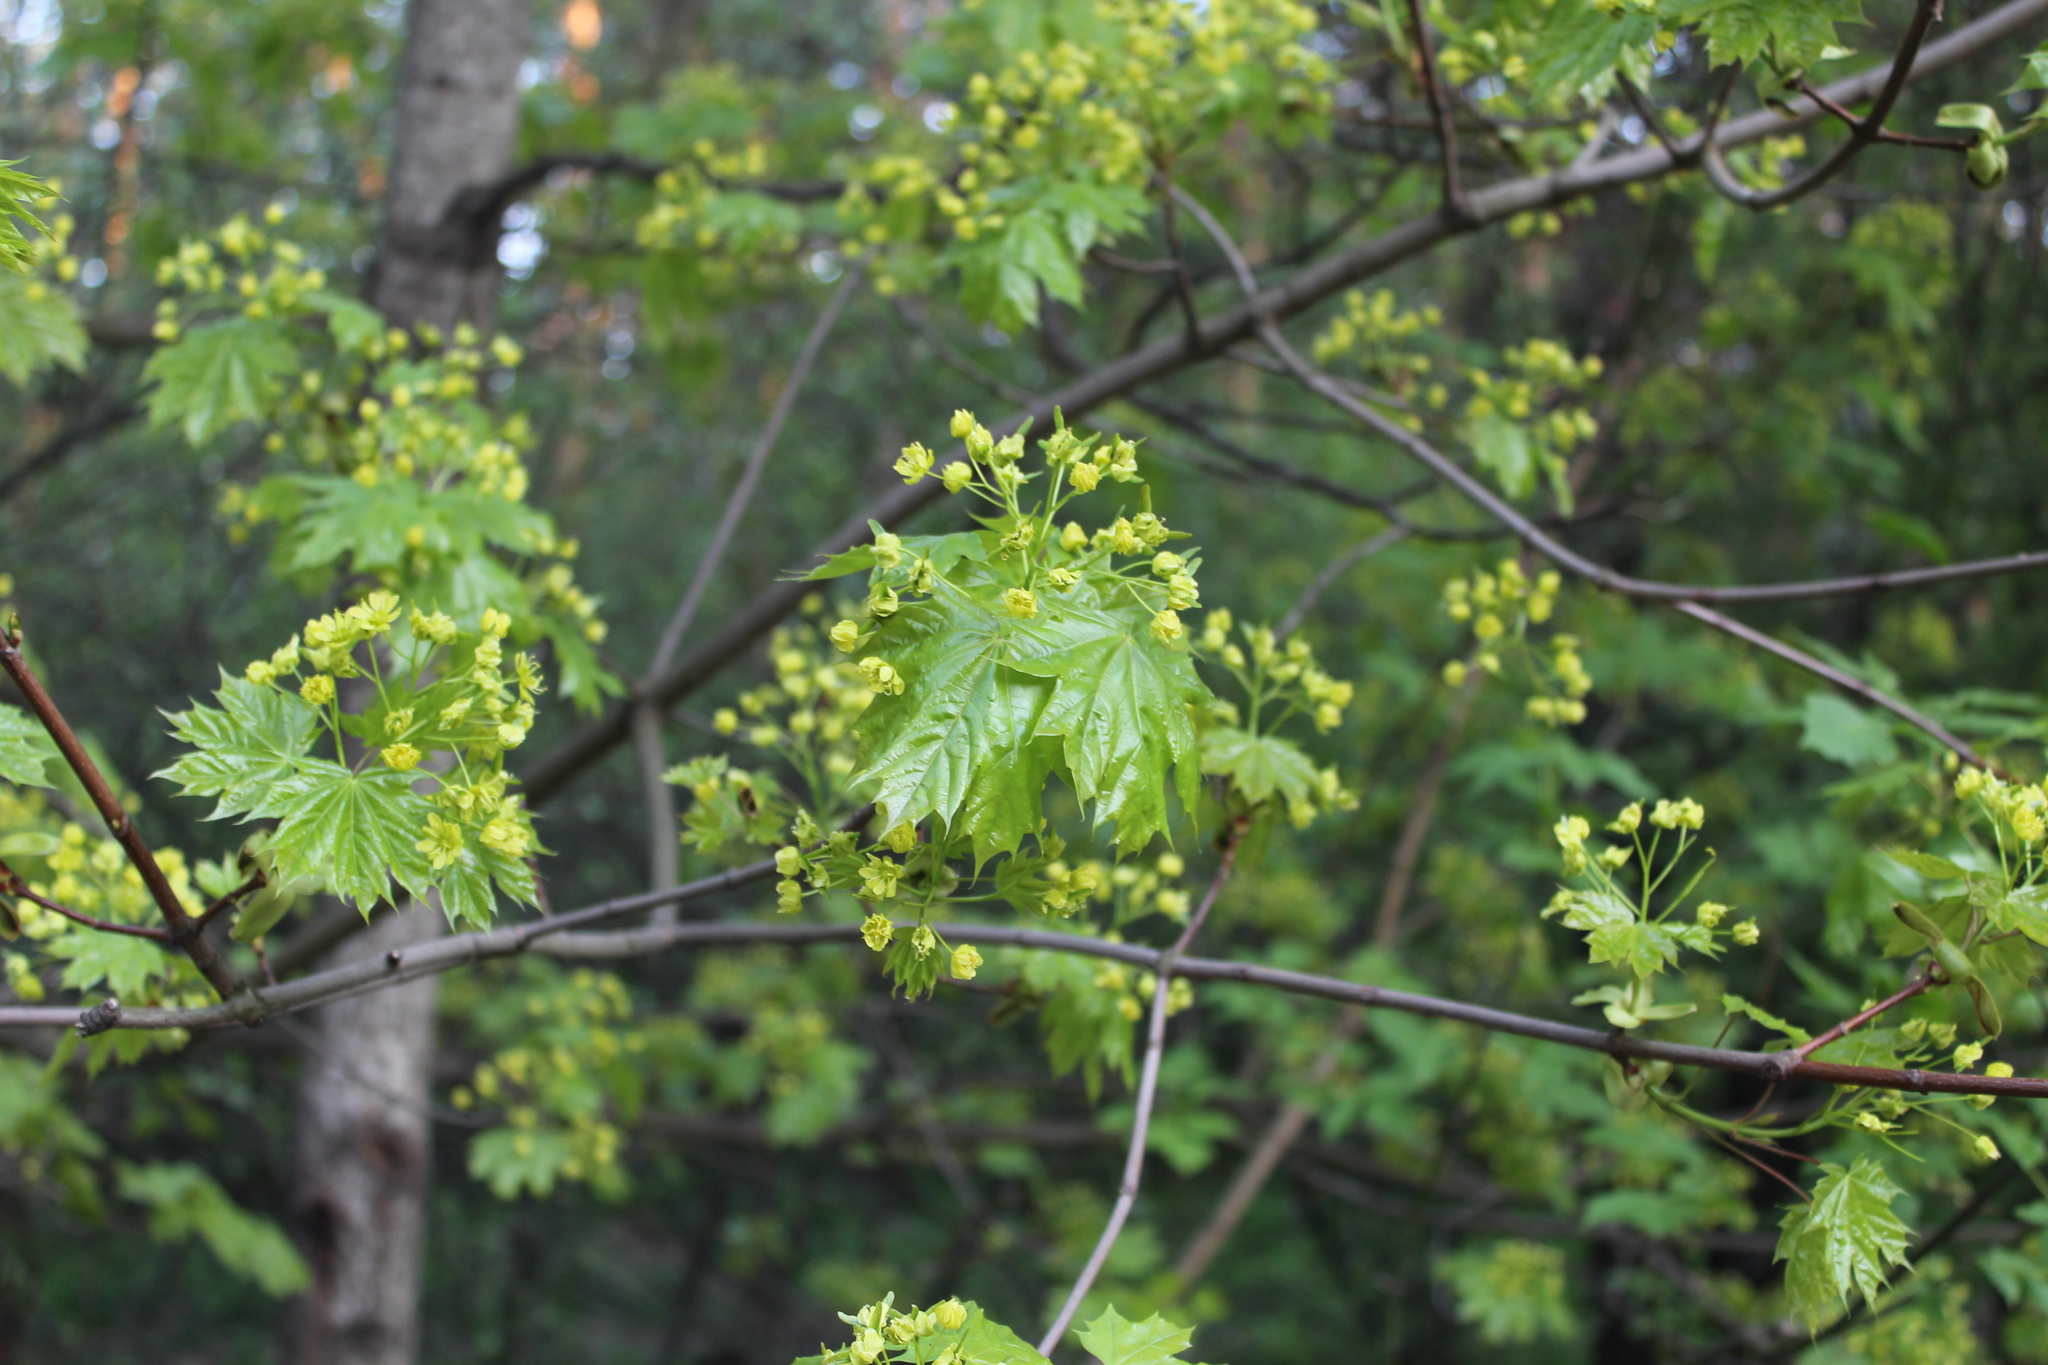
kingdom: Plantae
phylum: Tracheophyta
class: Magnoliopsida
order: Sapindales
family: Sapindaceae
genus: Acer
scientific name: Acer platanoides
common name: Norway maple
